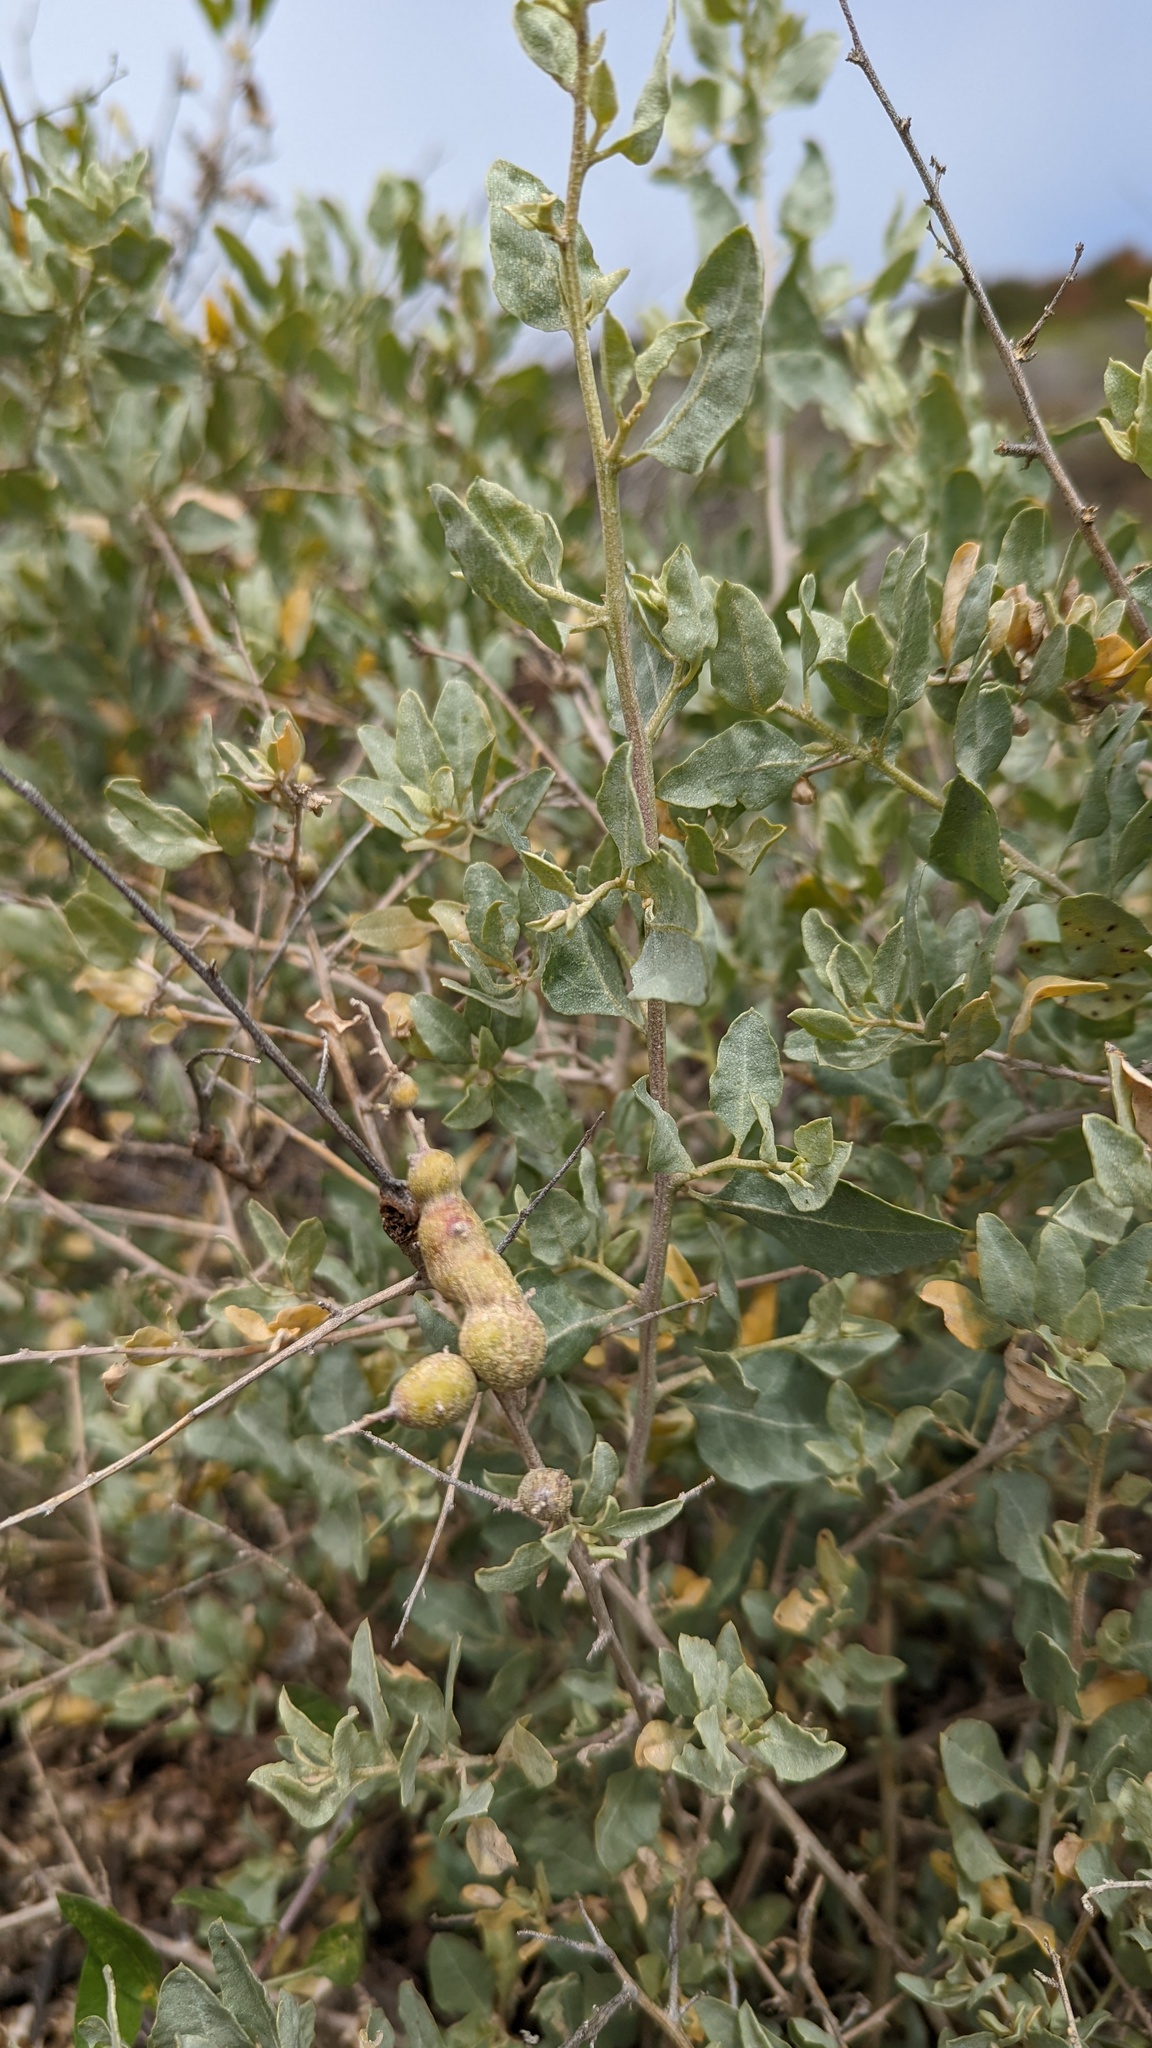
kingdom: Animalia
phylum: Arthropoda
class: Insecta
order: Diptera
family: Cecidomyiidae
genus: Asphondylia
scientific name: Asphondylia atriplicis
